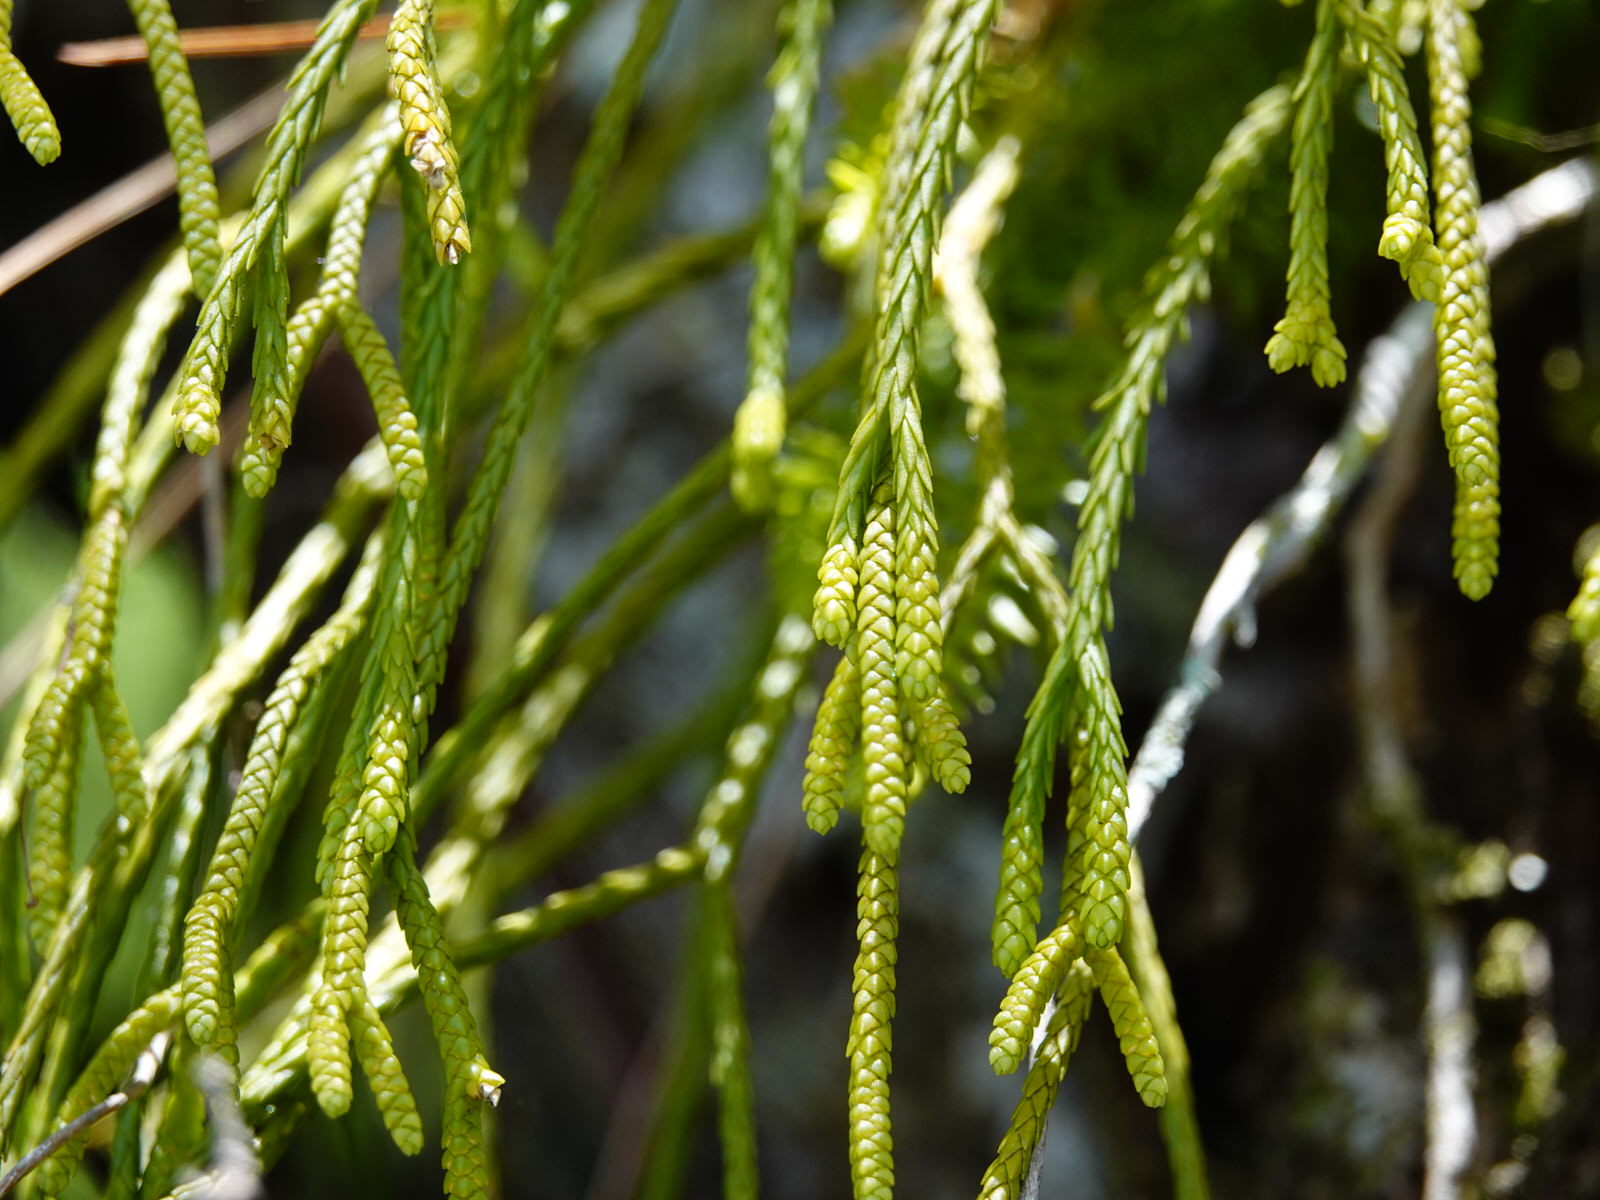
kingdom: Plantae
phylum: Tracheophyta
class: Lycopodiopsida
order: Lycopodiales
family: Lycopodiaceae
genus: Phlegmariurus
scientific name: Phlegmariurus billardierei
